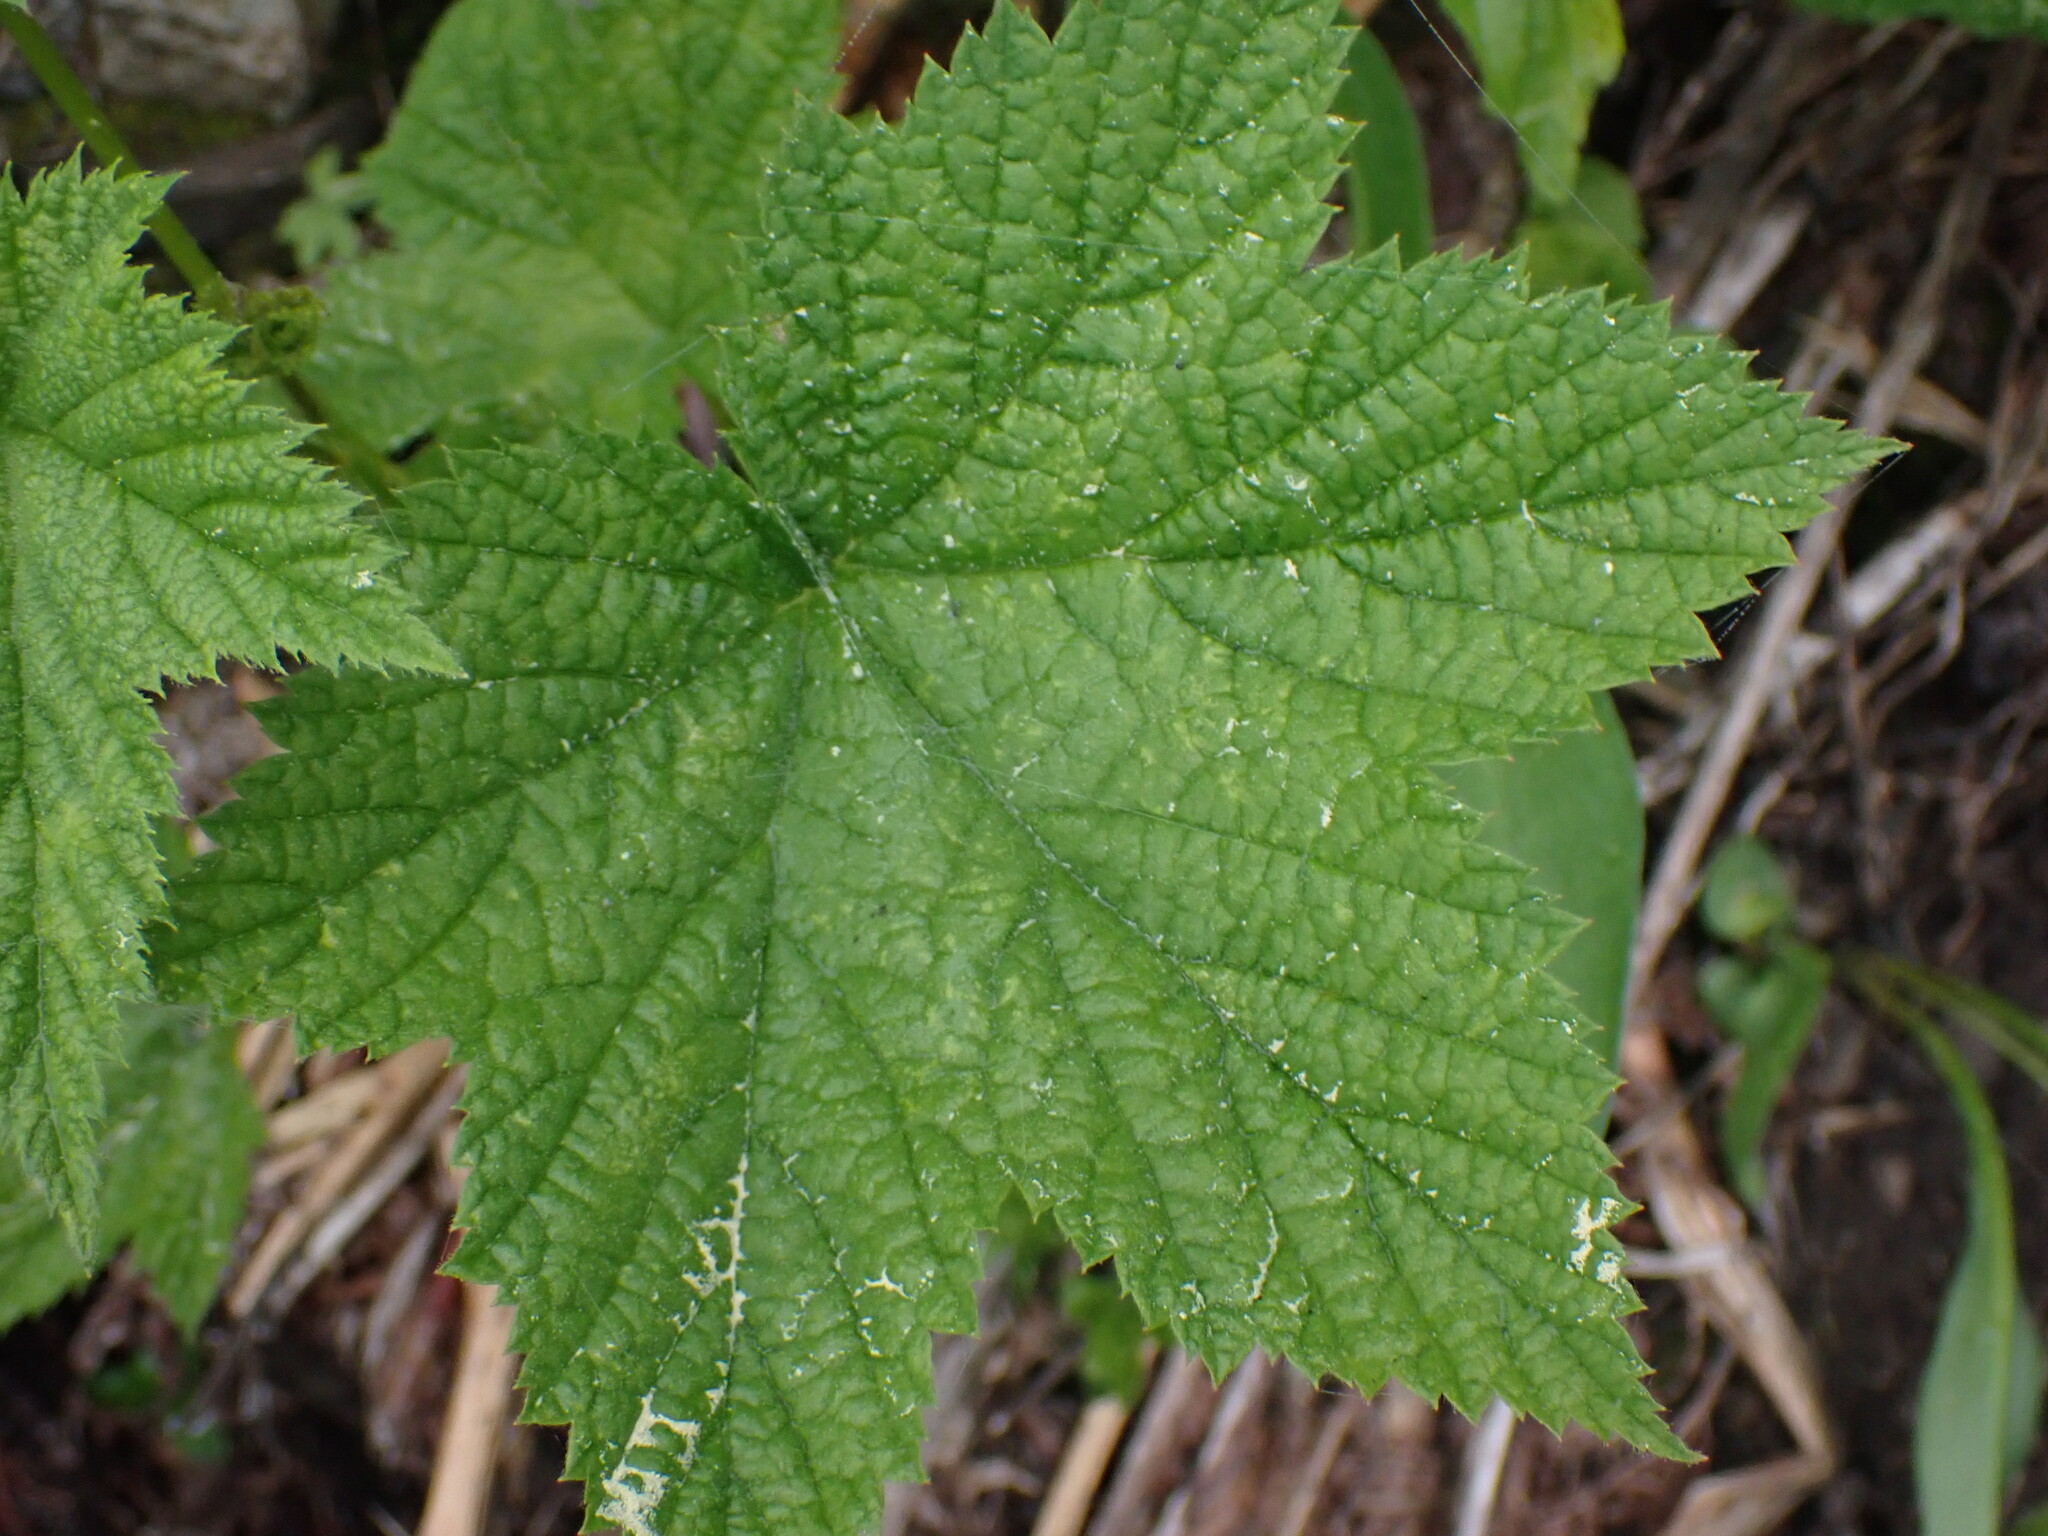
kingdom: Plantae
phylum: Tracheophyta
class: Magnoliopsida
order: Rosales
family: Rosaceae
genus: Rubus
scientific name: Rubus parviflorus
